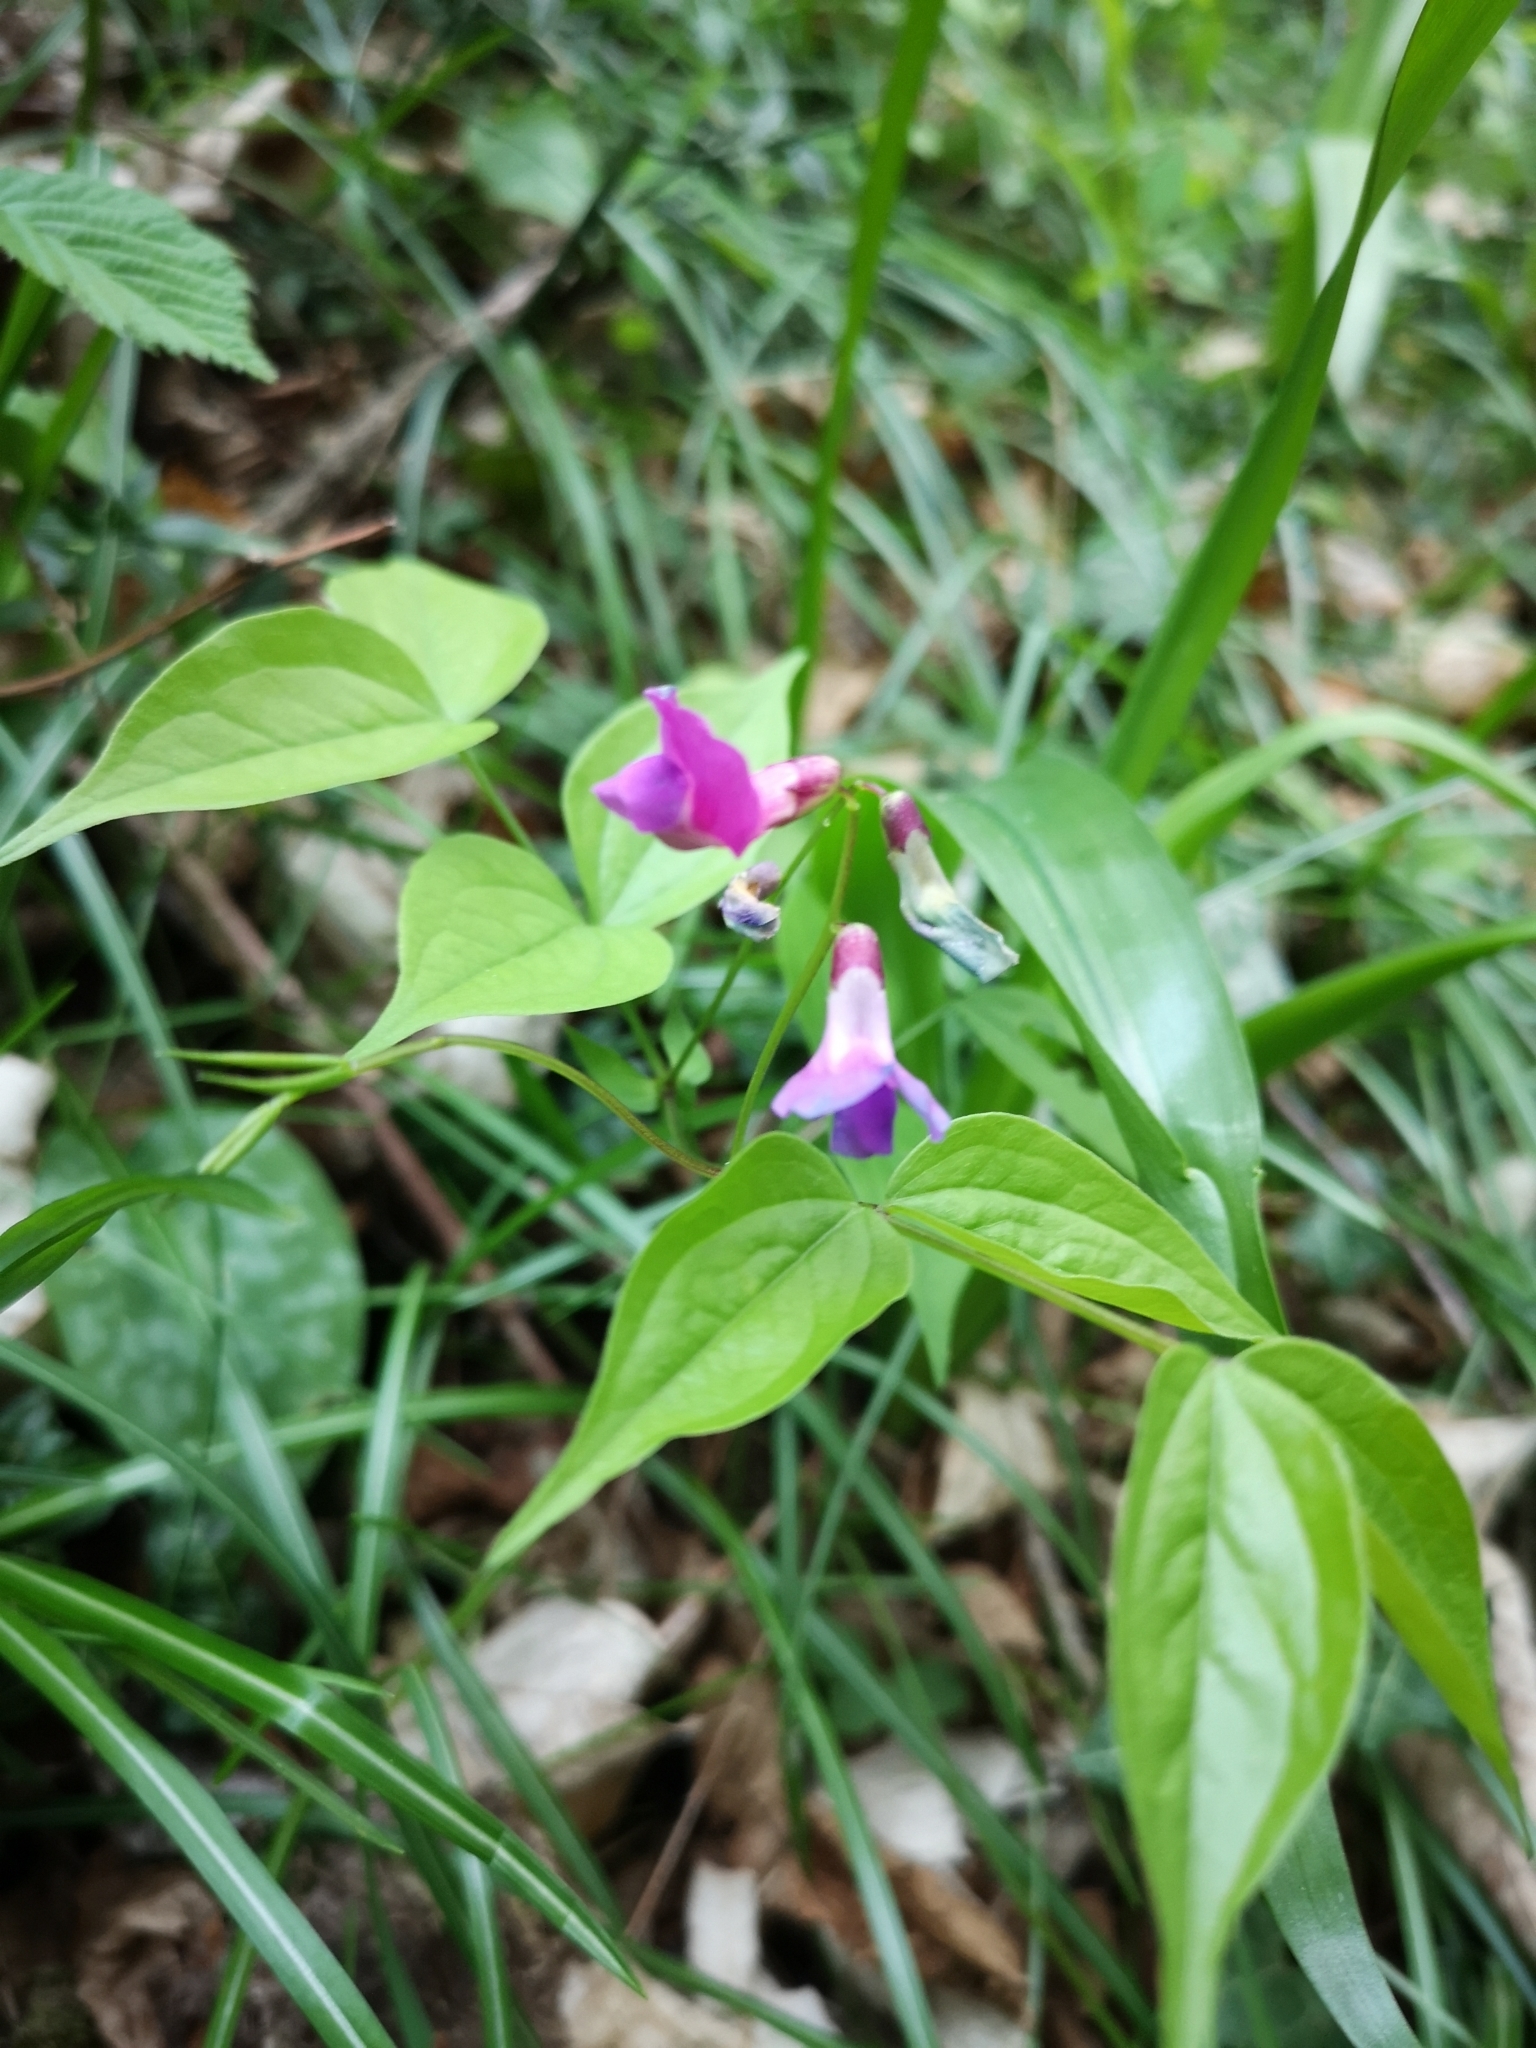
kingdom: Plantae
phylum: Tracheophyta
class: Magnoliopsida
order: Fabales
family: Fabaceae
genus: Lathyrus
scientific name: Lathyrus vernus
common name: Spring pea
